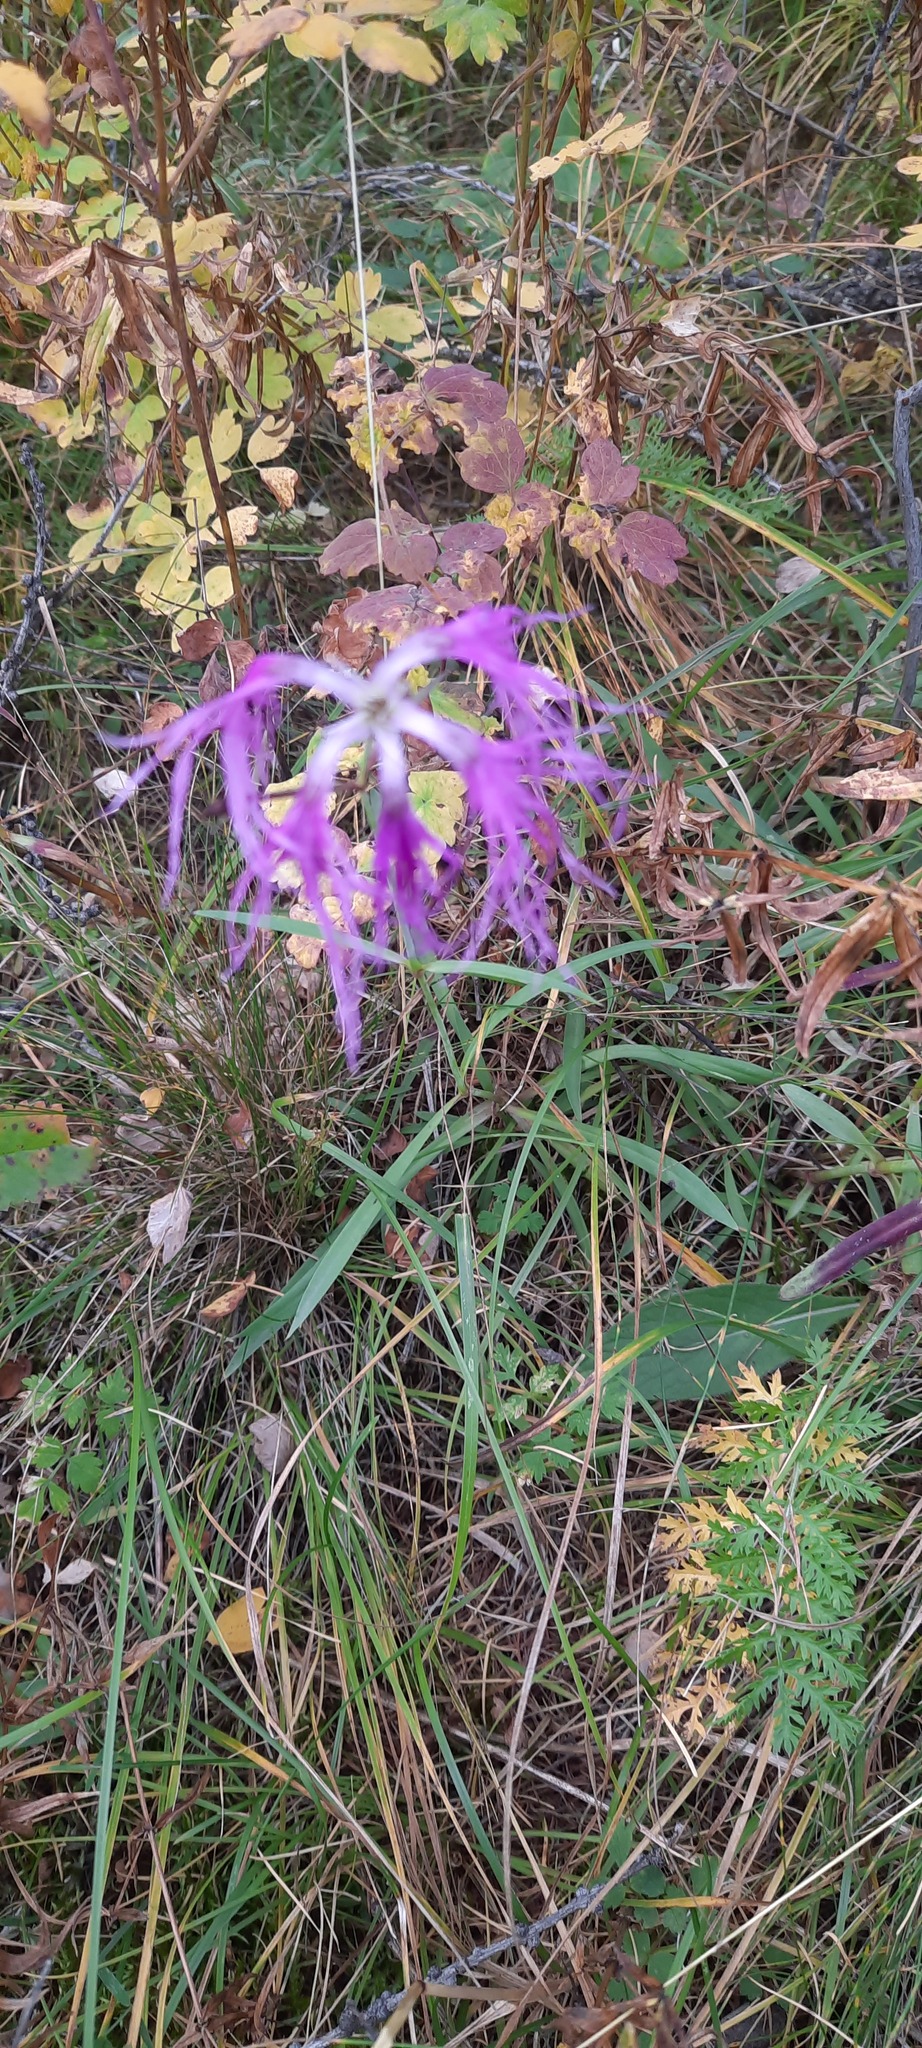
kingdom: Plantae
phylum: Tracheophyta
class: Magnoliopsida
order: Caryophyllales
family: Caryophyllaceae
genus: Dianthus
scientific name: Dianthus superbus
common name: Fringed pink
